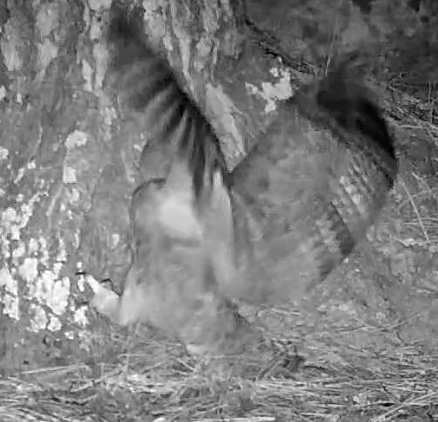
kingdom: Animalia
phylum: Chordata
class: Aves
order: Strigiformes
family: Strigidae
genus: Bubo
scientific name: Bubo virginianus
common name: Great horned owl
